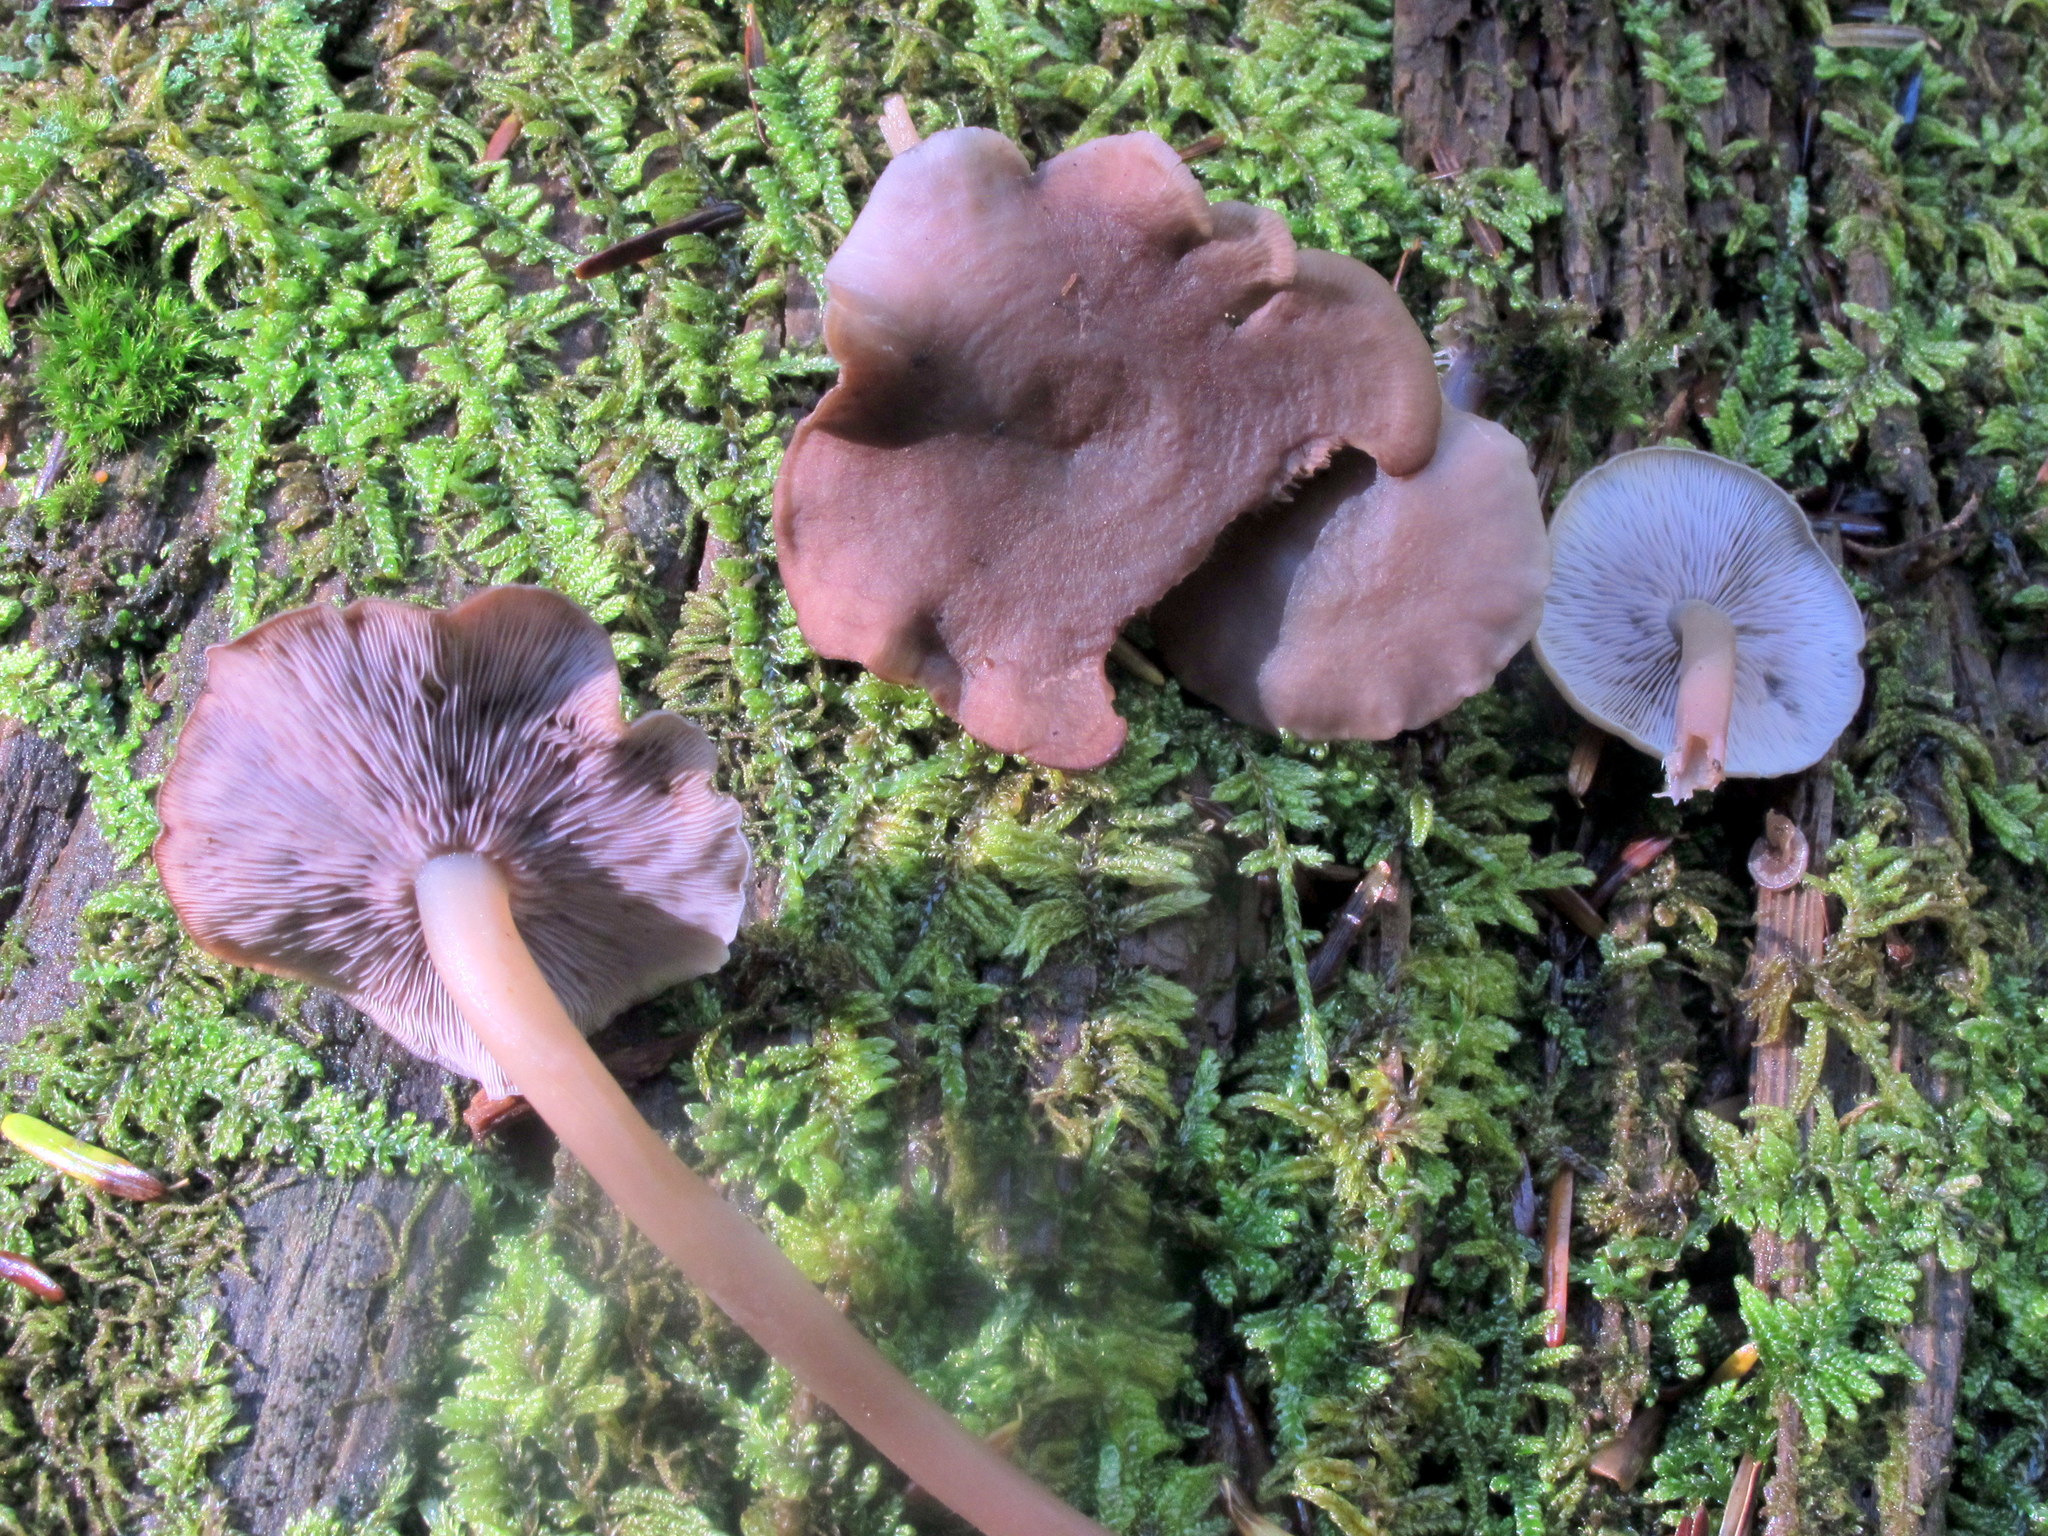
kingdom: Fungi
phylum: Basidiomycota
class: Agaricomycetes
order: Agaricales
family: Marasmiaceae
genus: Baeospora
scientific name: Baeospora myriadophylla
